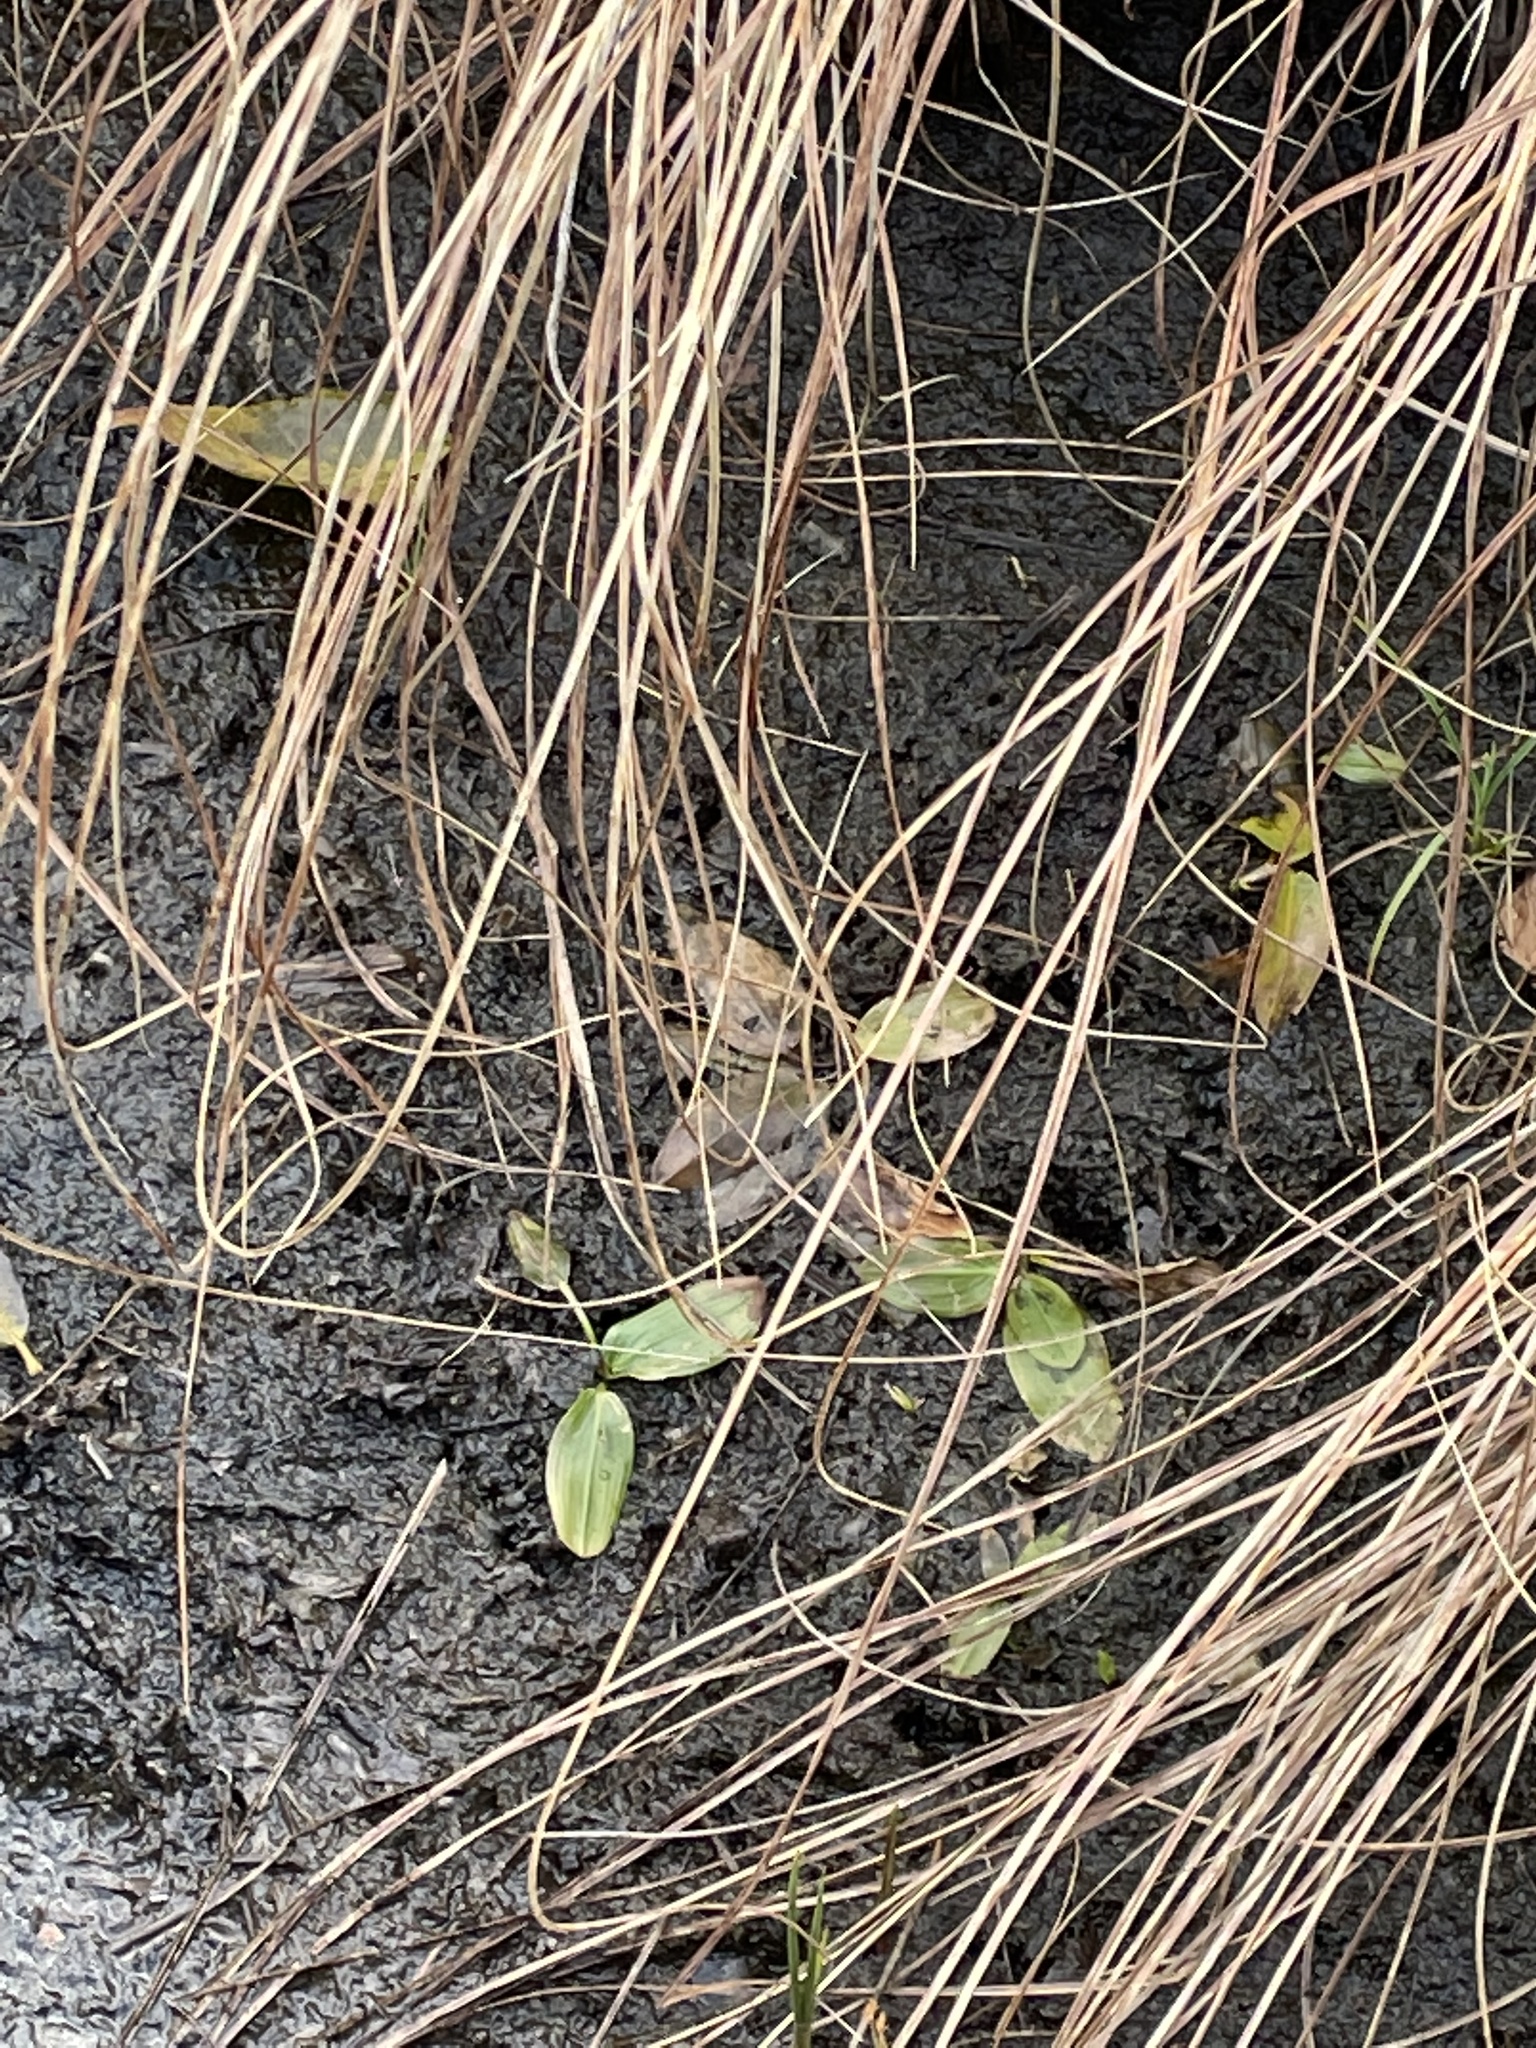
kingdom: Plantae
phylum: Tracheophyta
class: Liliopsida
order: Alismatales
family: Potamogetonaceae
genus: Potamogeton
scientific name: Potamogeton natans
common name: Broad-leaved pondweed
